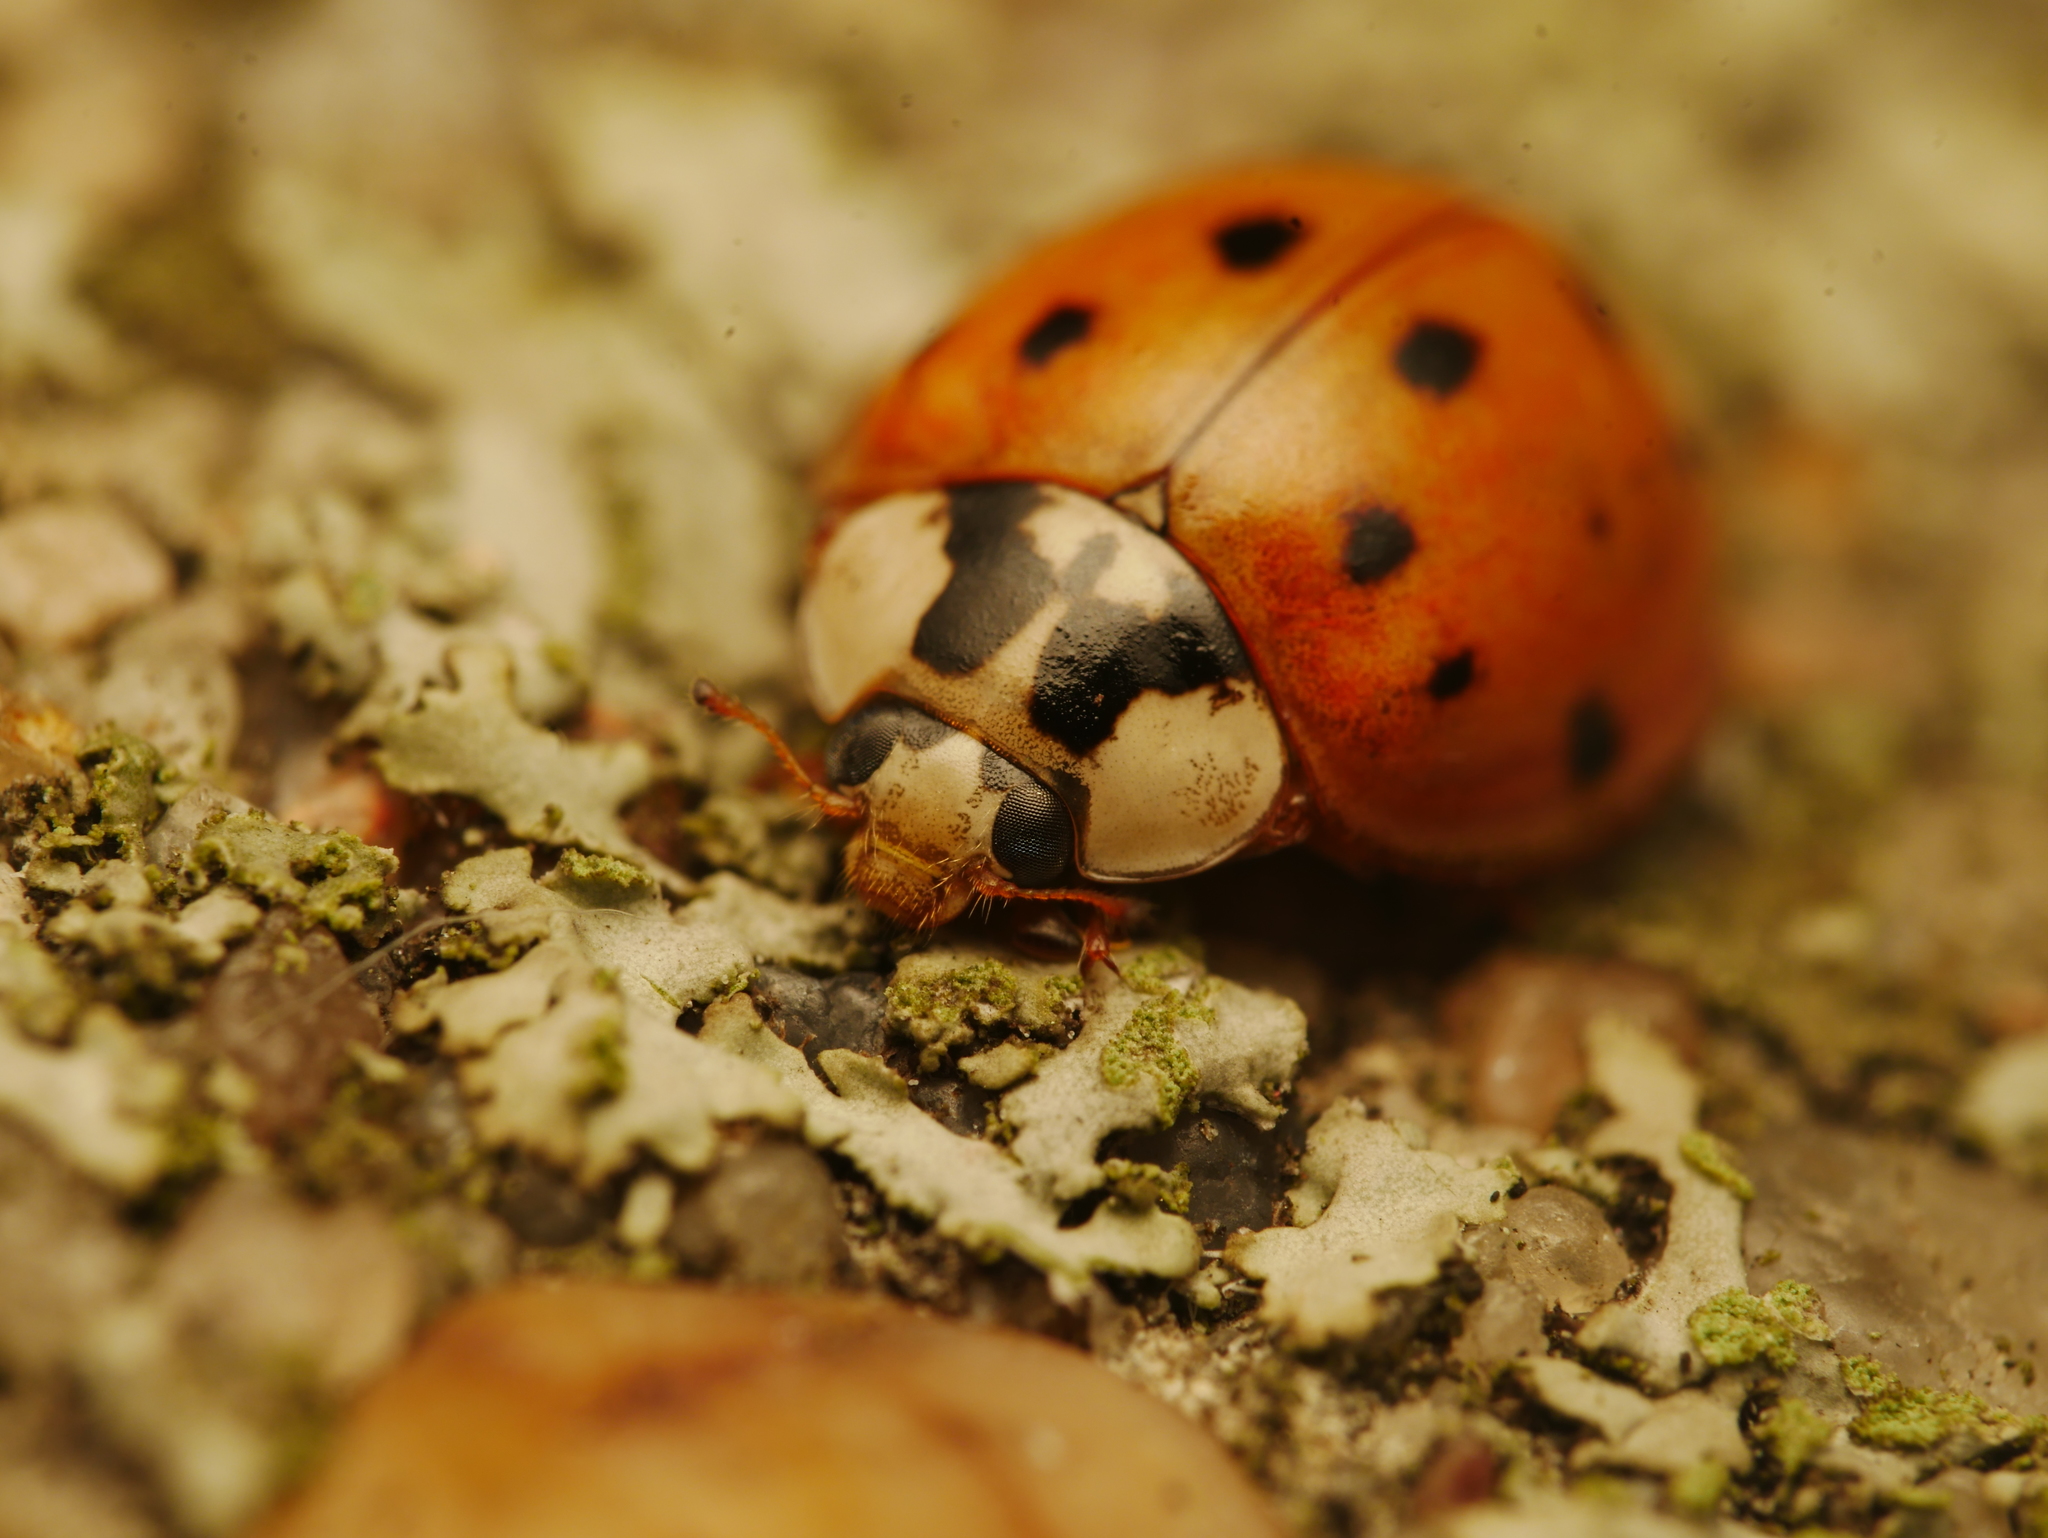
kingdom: Animalia
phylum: Arthropoda
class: Insecta
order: Coleoptera
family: Coccinellidae
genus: Harmonia
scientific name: Harmonia axyridis
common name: Harlequin ladybird
